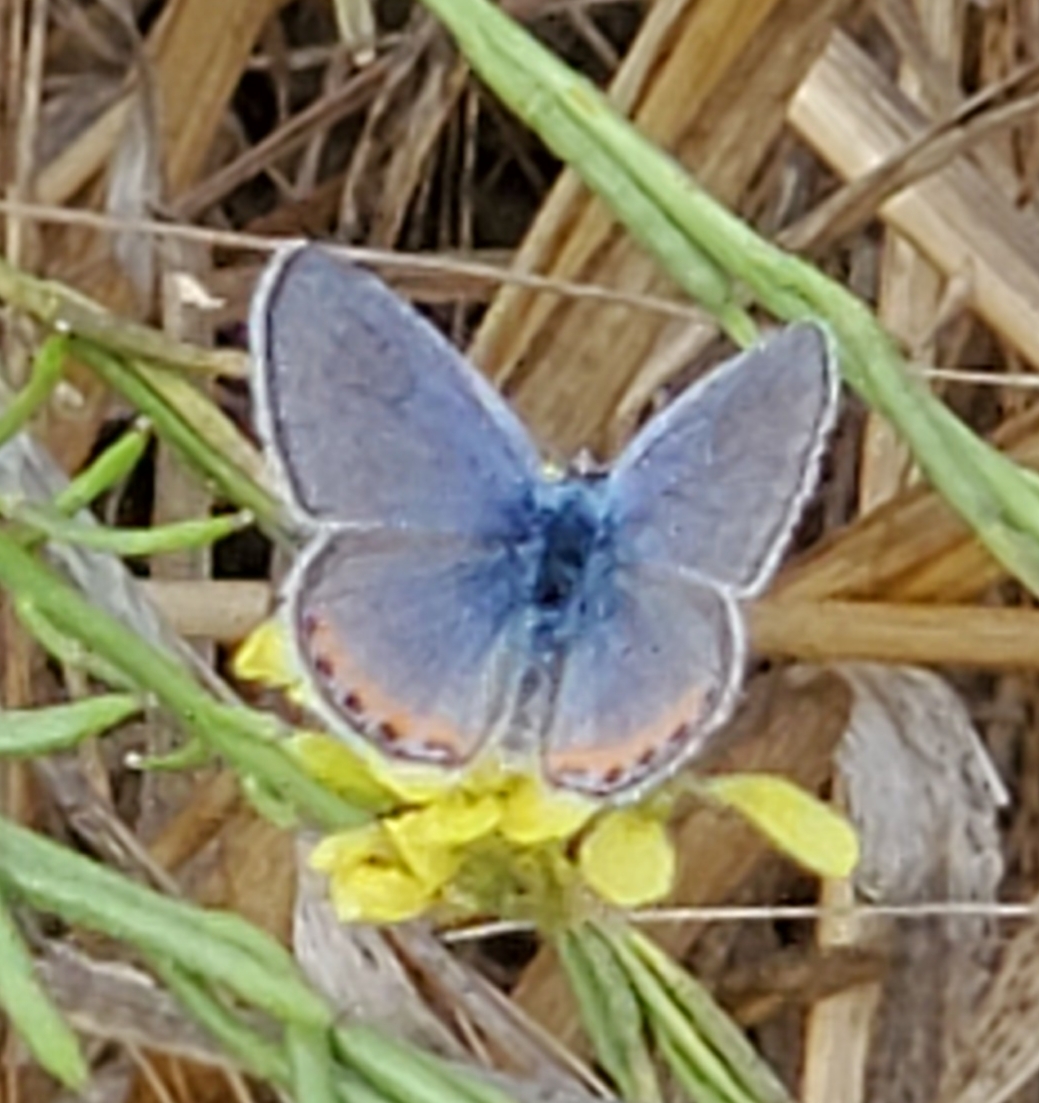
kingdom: Animalia
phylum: Arthropoda
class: Insecta
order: Lepidoptera
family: Lycaenidae
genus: Icaricia
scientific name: Icaricia acmon
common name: Acmon blue
